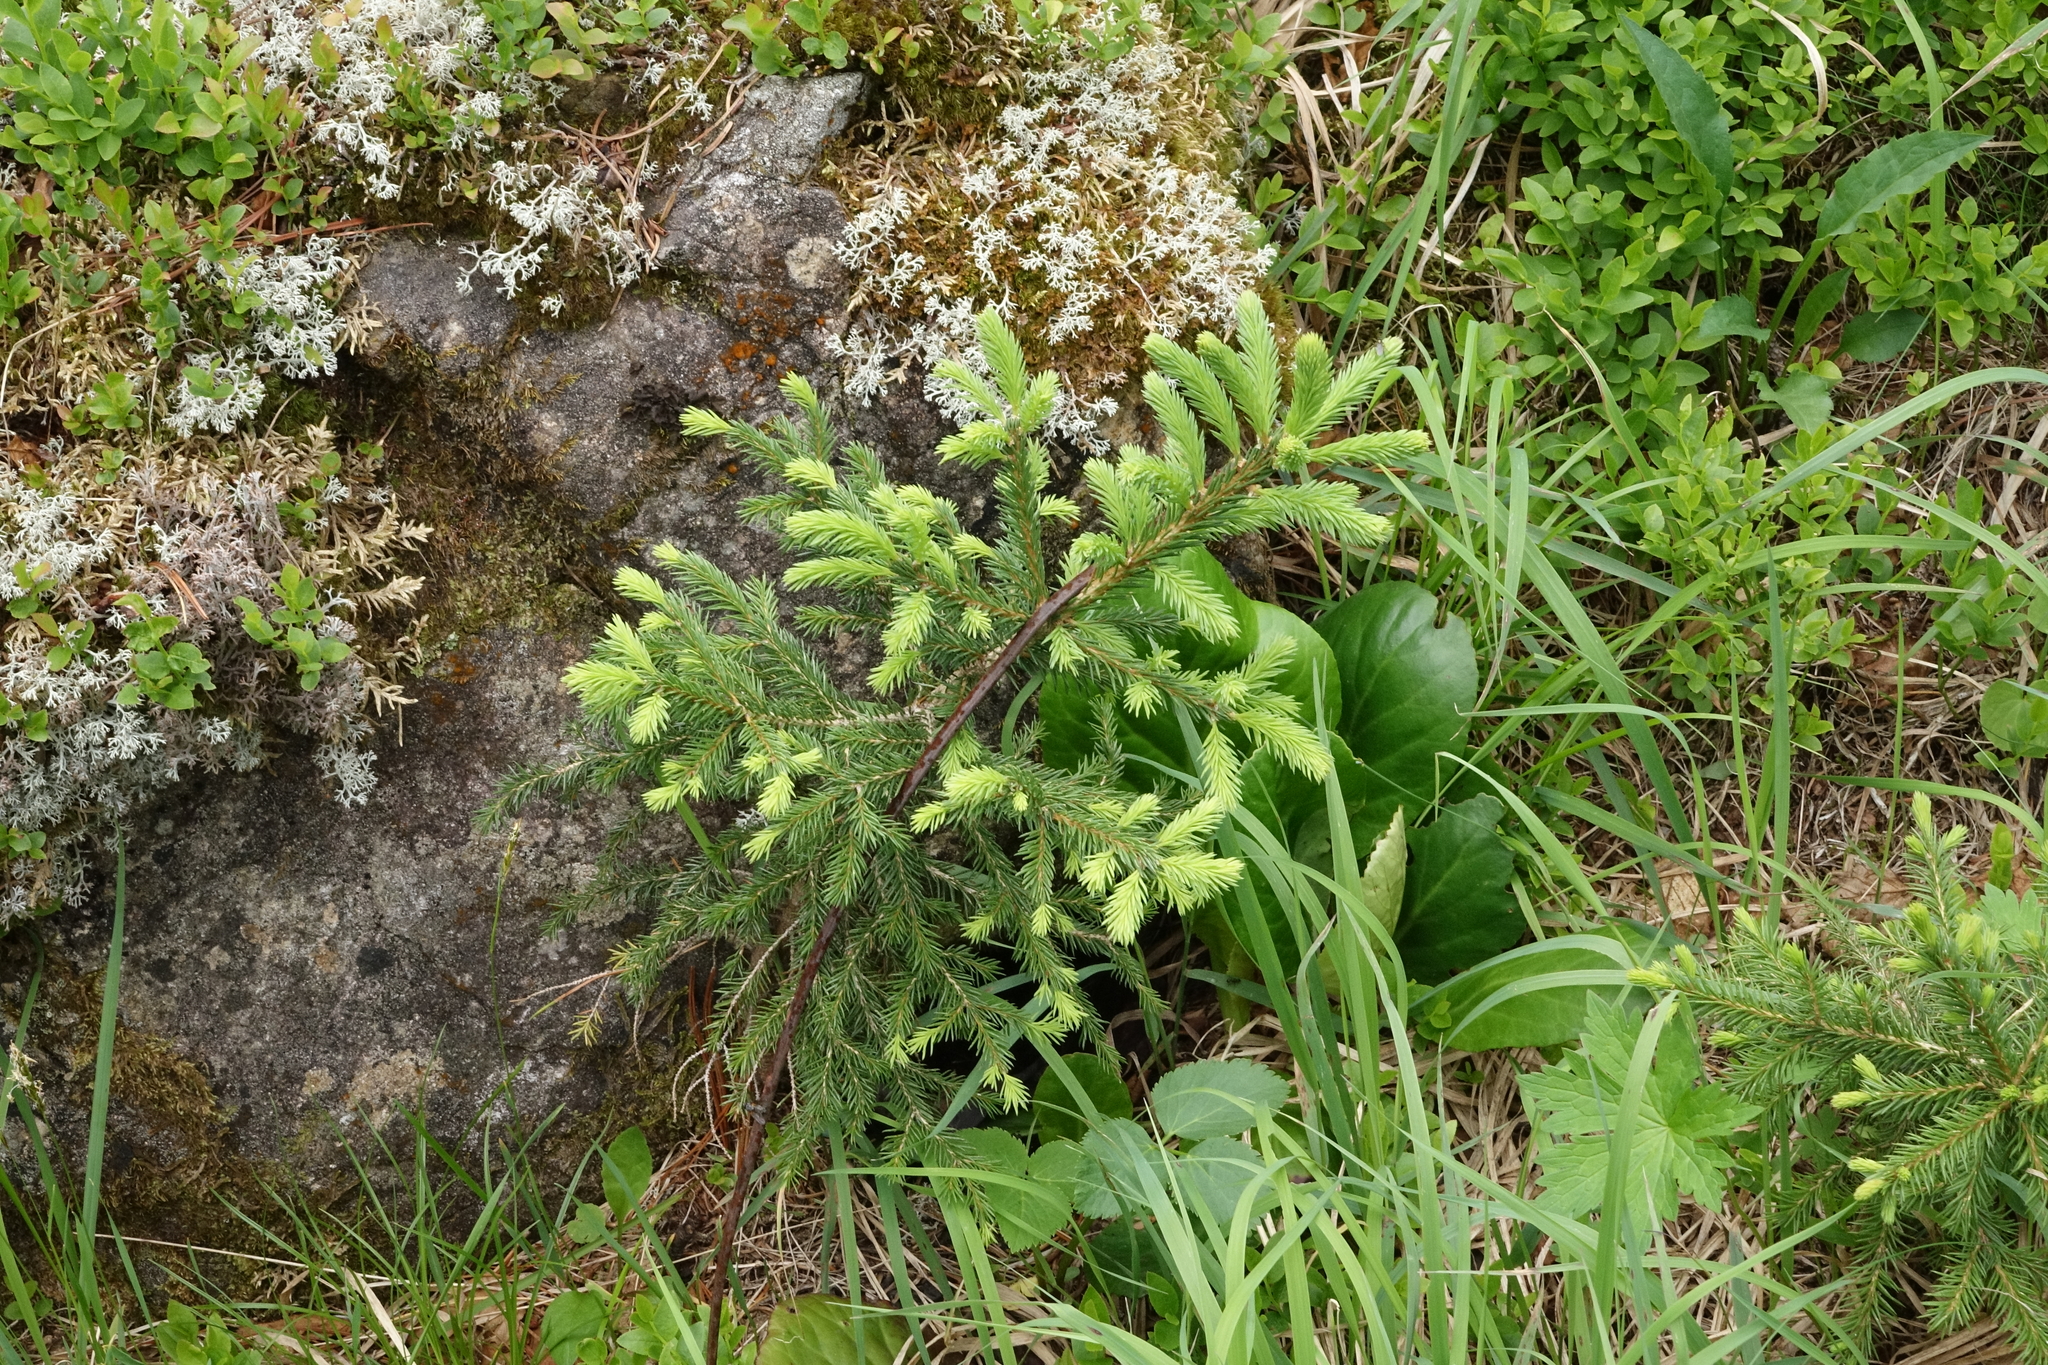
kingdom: Plantae
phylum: Tracheophyta
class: Pinopsida
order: Pinales
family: Pinaceae
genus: Picea
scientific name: Picea obovata
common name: Siberian spruce
